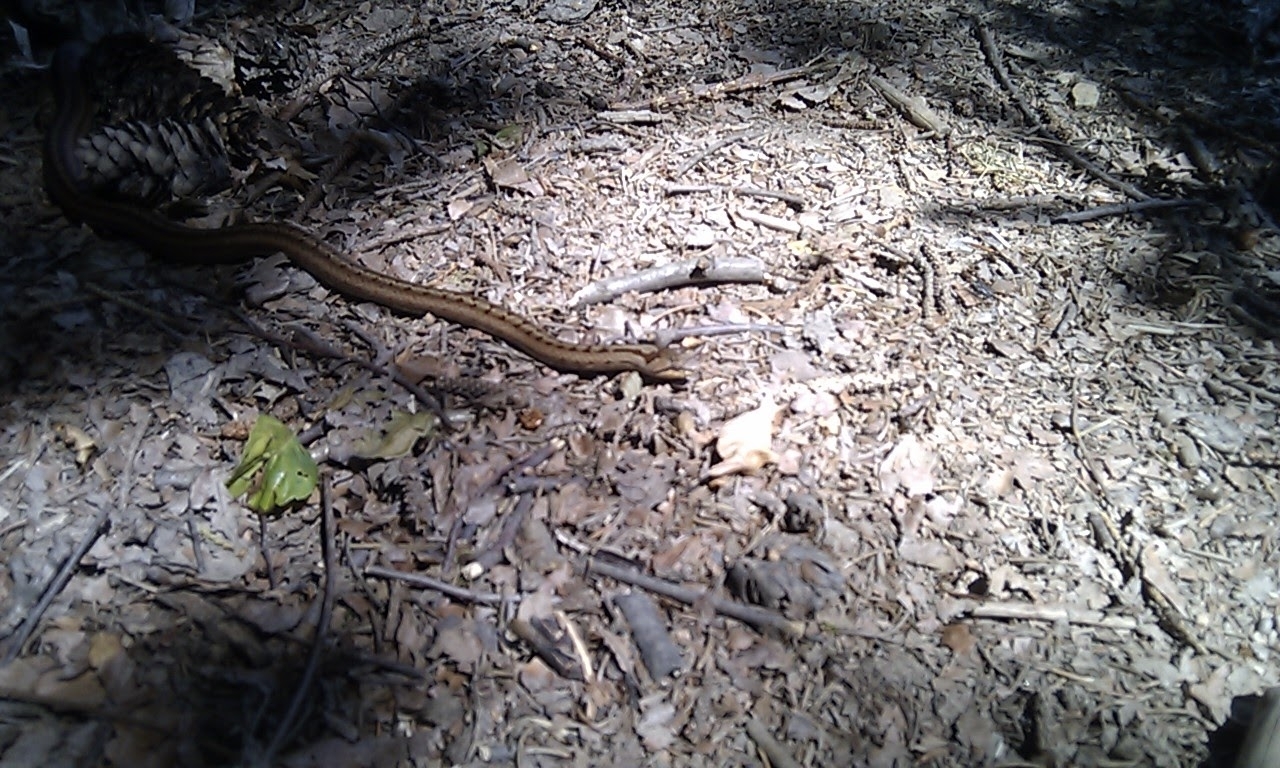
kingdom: Animalia
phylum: Chordata
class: Squamata
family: Colubridae
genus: Coronella
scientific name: Coronella austriaca
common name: Smooth snake
